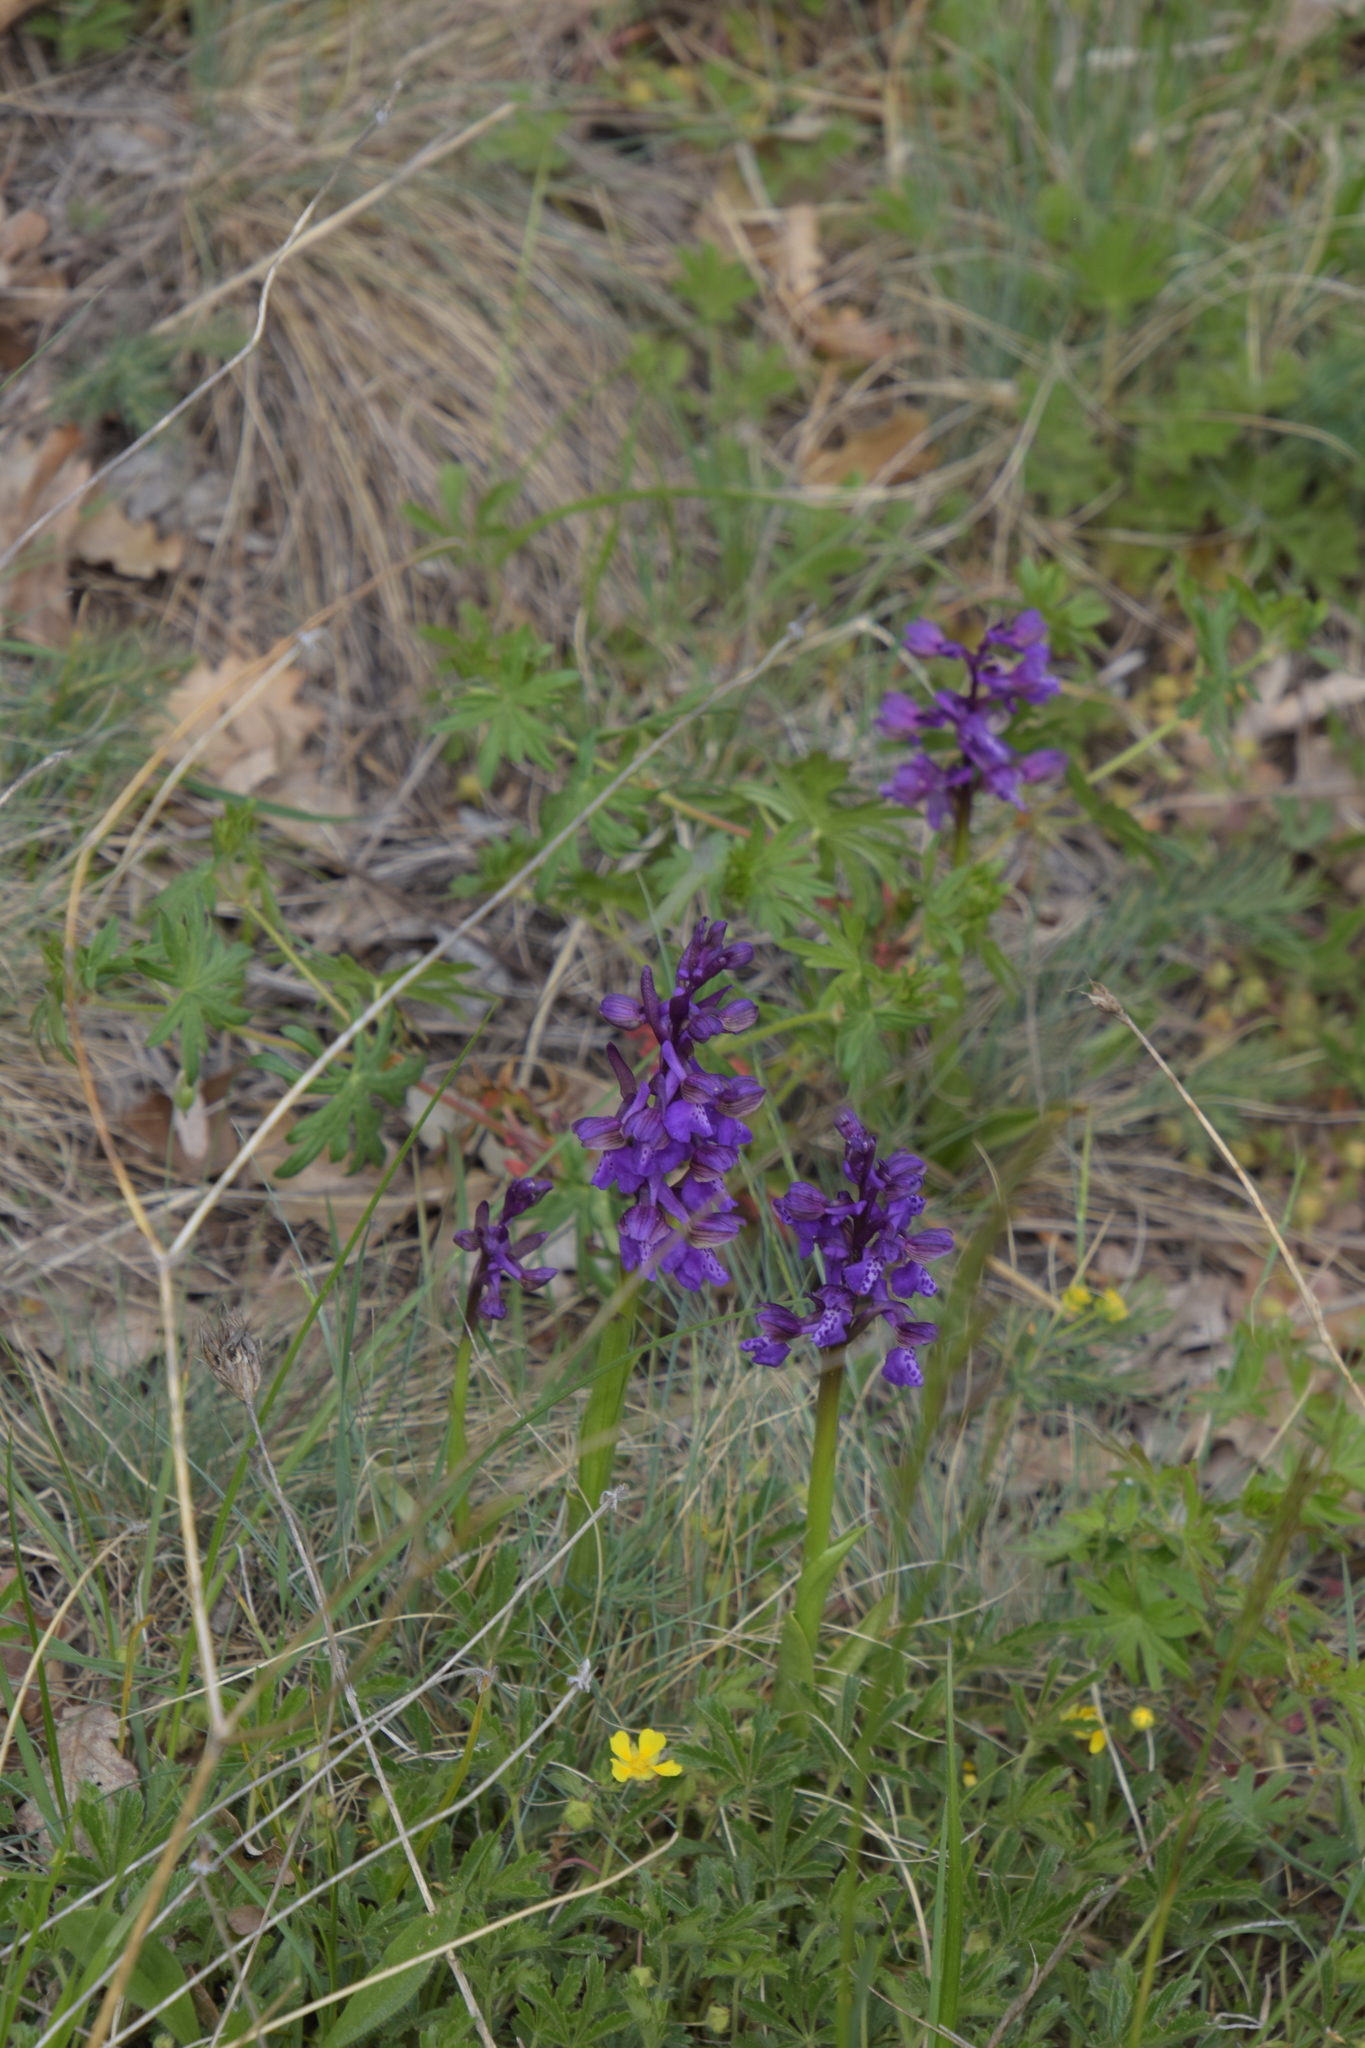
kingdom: Plantae
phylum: Tracheophyta
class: Liliopsida
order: Asparagales
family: Orchidaceae
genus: Anacamptis
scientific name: Anacamptis morio
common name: Green-winged orchid
